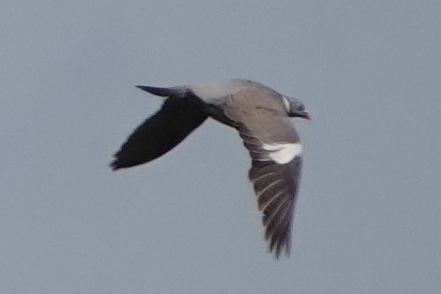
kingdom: Animalia
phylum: Chordata
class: Aves
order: Columbiformes
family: Columbidae
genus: Columba
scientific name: Columba palumbus
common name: Common wood pigeon
